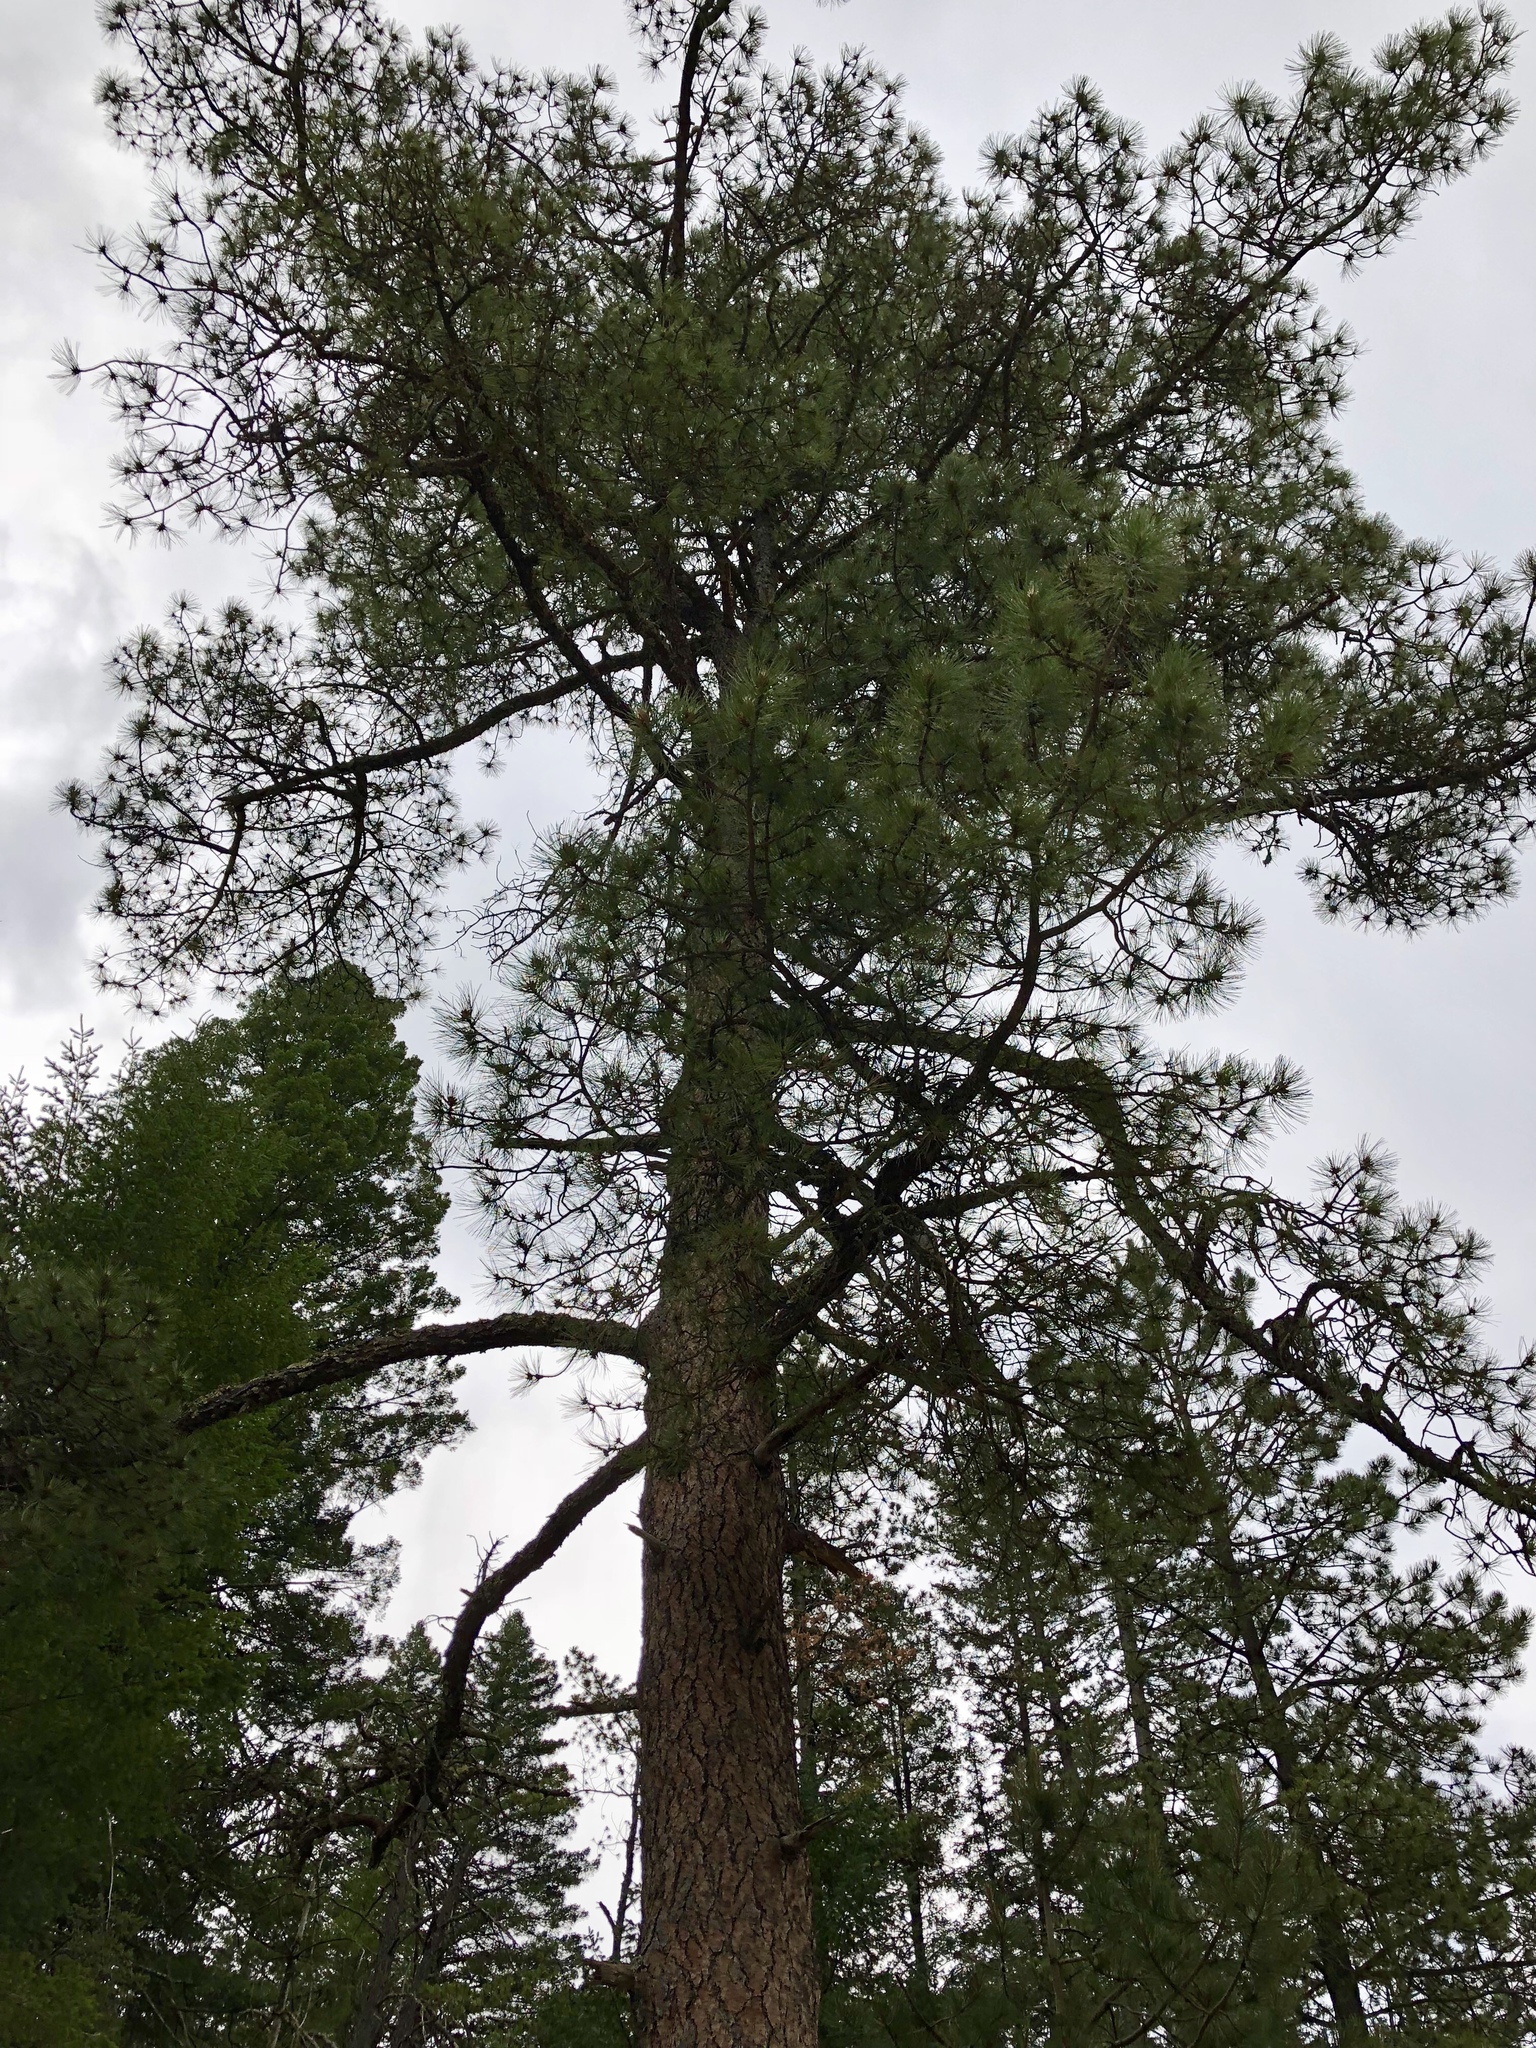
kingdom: Plantae
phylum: Tracheophyta
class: Pinopsida
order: Pinales
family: Pinaceae
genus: Pinus
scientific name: Pinus ponderosa
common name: Western yellow-pine
